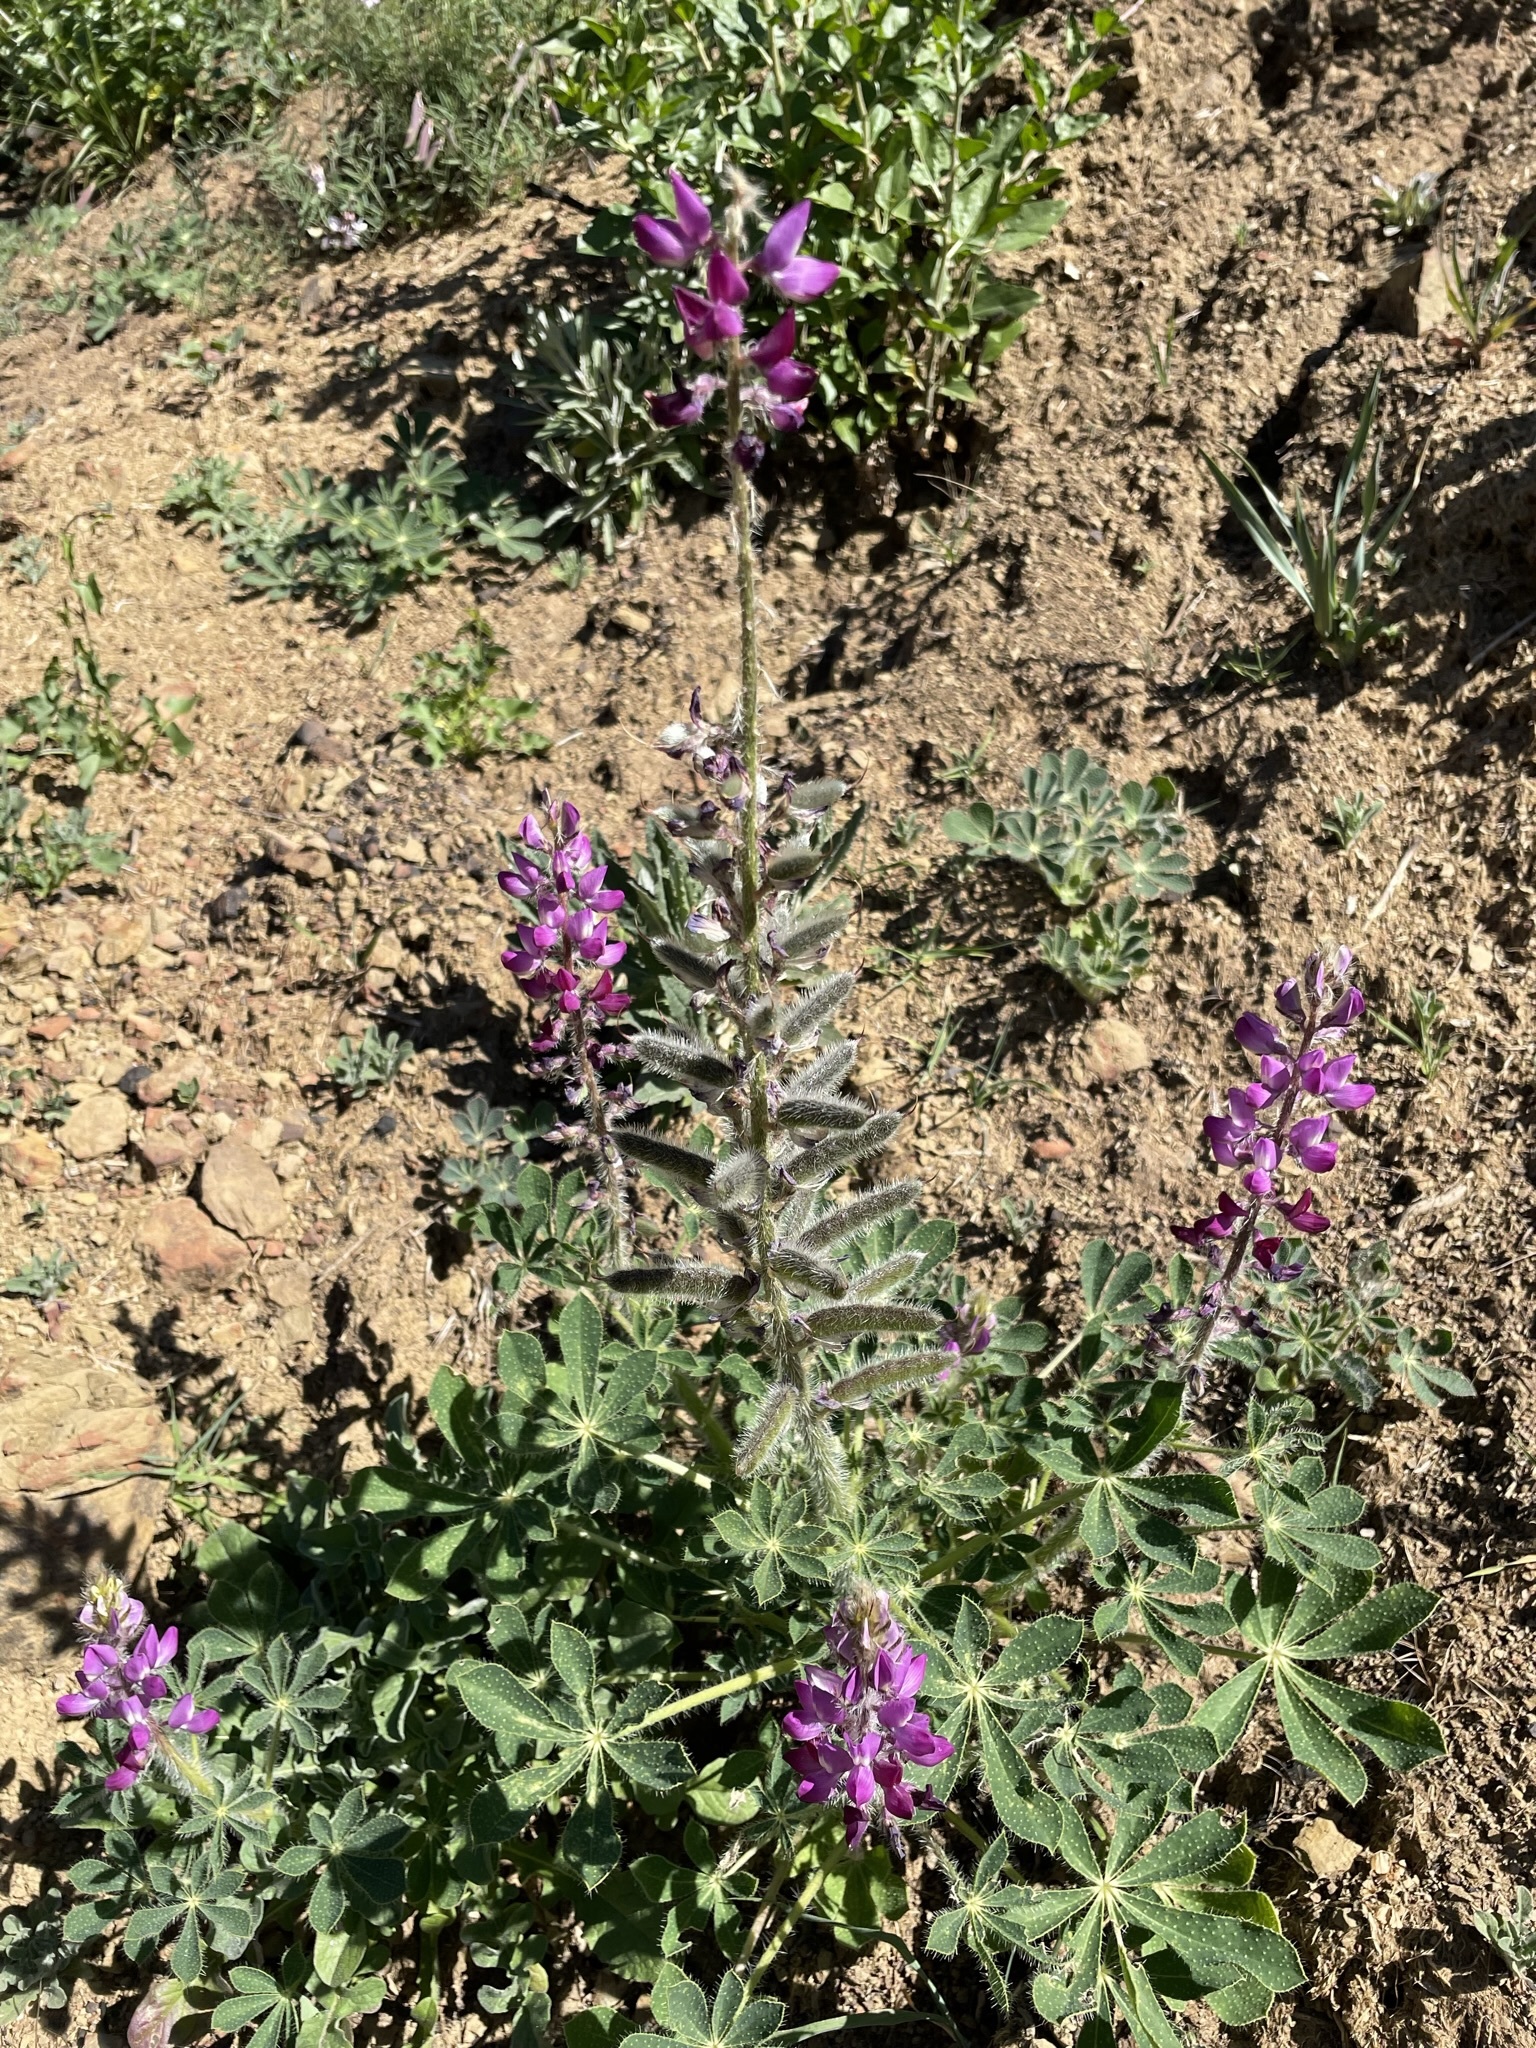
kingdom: Plantae
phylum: Tracheophyta
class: Magnoliopsida
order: Fabales
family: Fabaceae
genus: Lupinus
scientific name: Lupinus hirsutissimus
